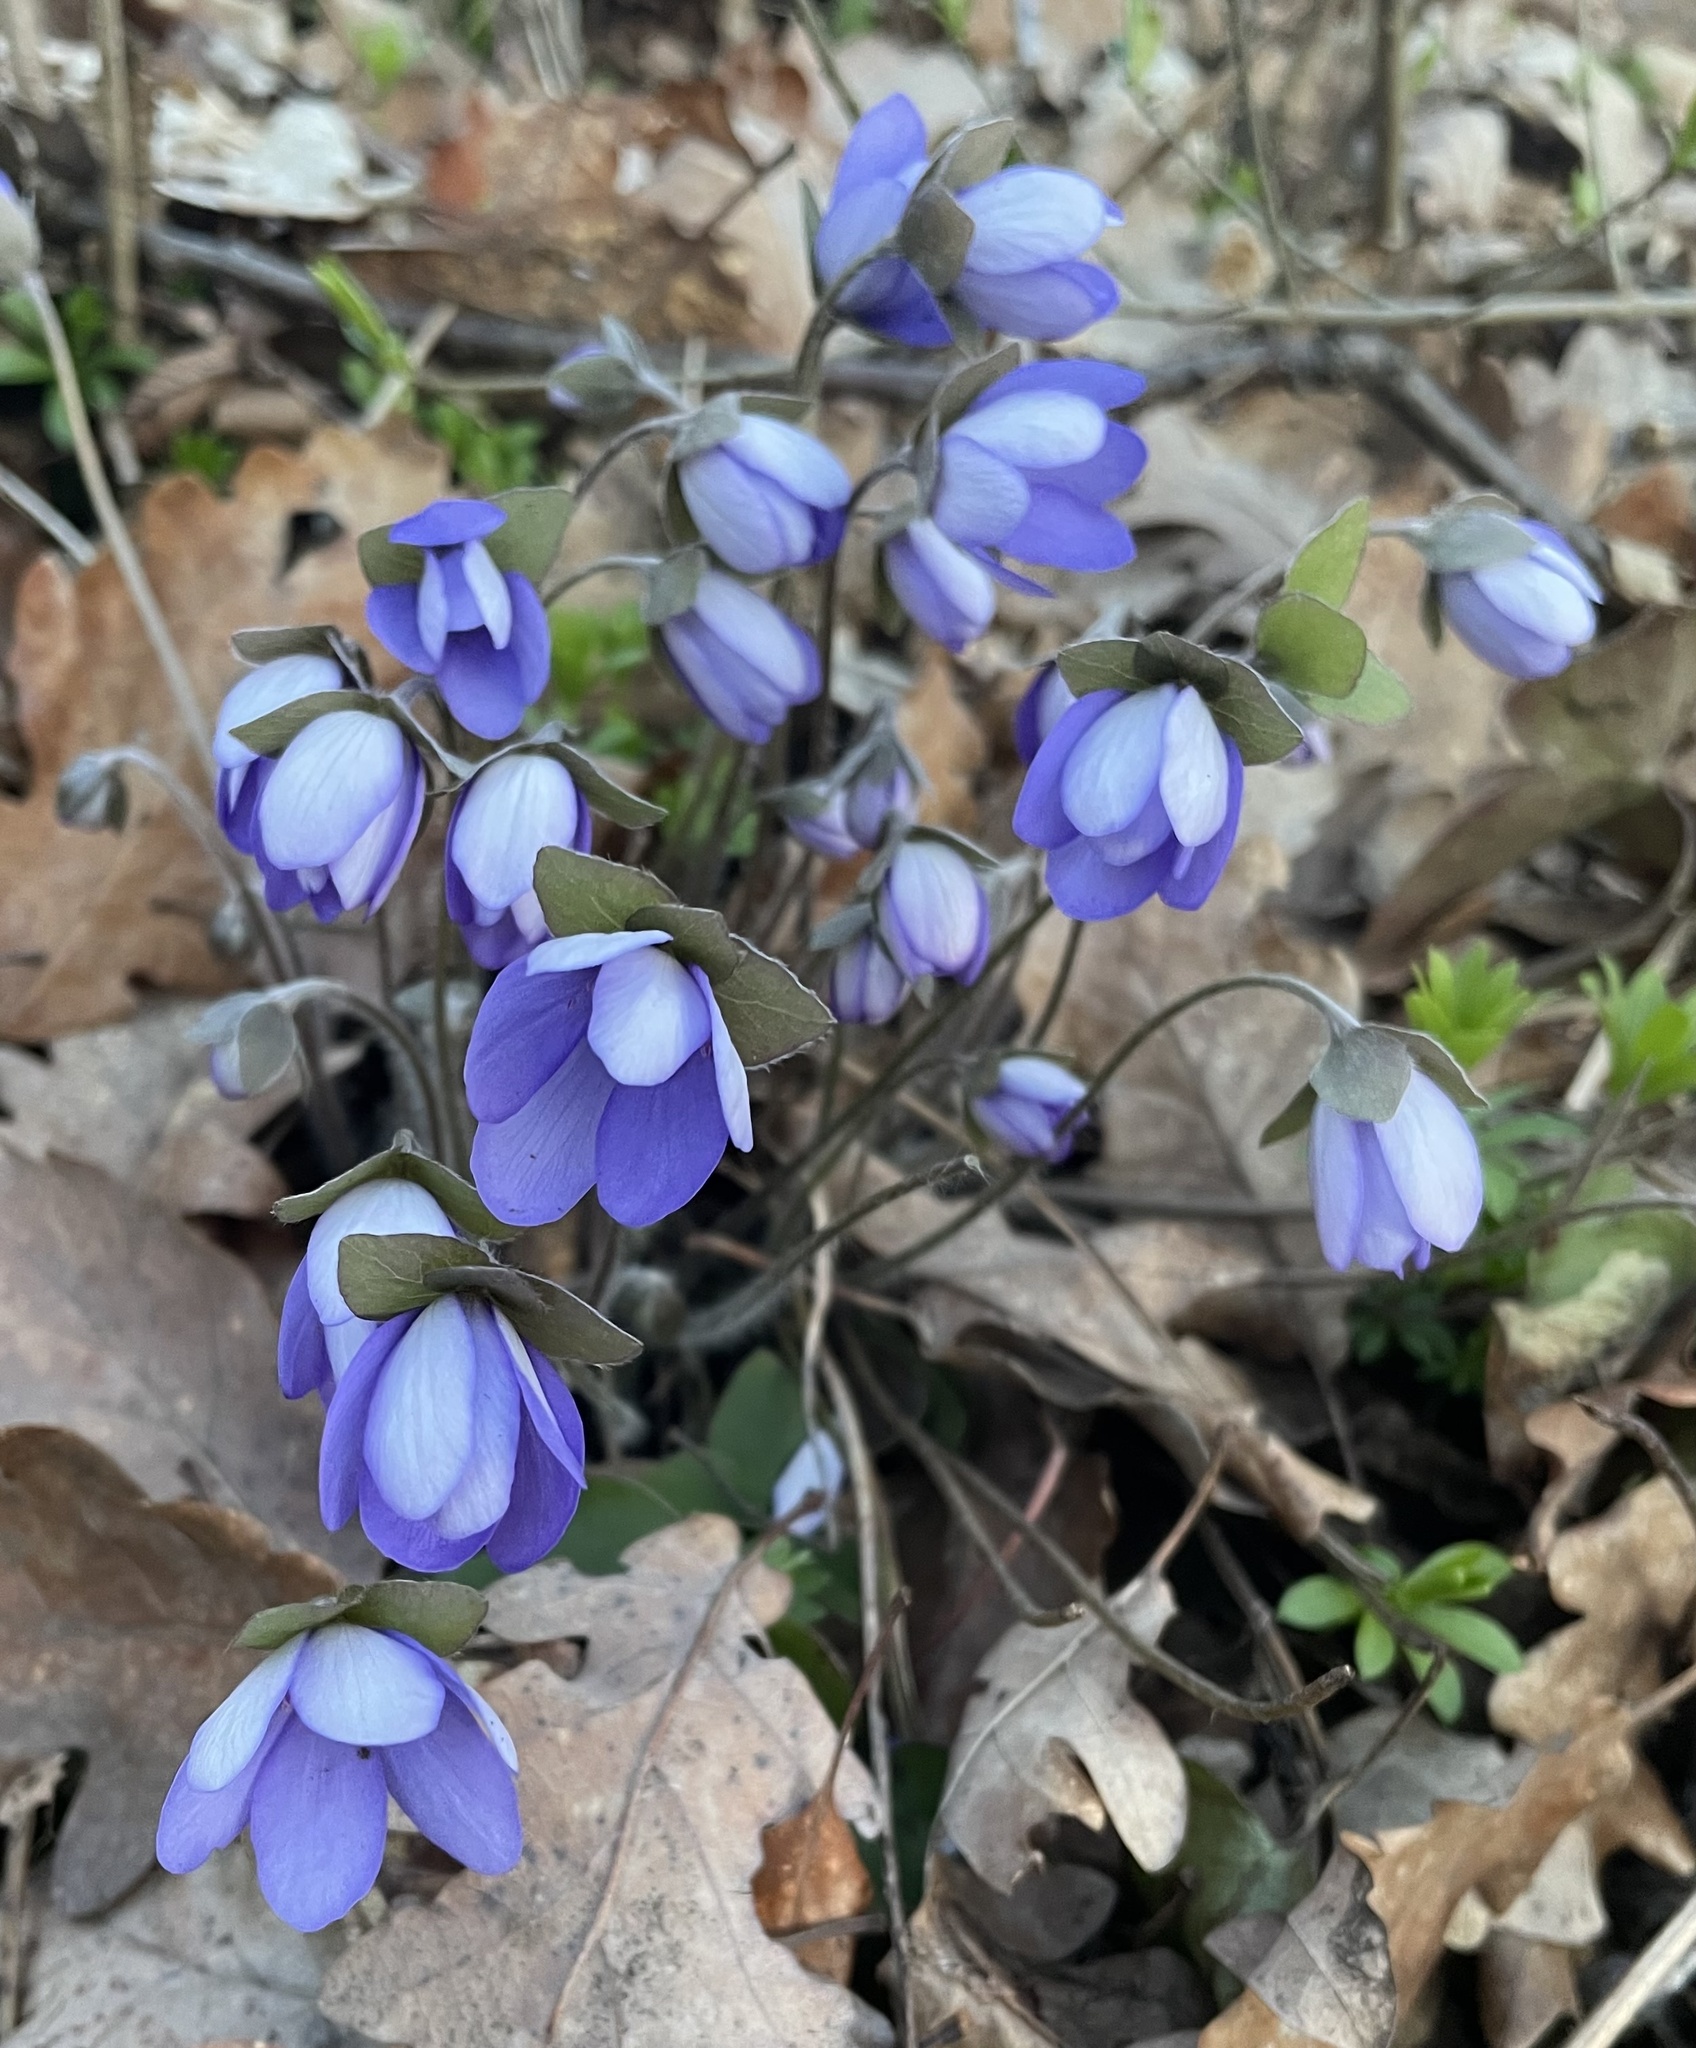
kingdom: Plantae
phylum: Tracheophyta
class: Magnoliopsida
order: Ranunculales
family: Ranunculaceae
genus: Hepatica
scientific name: Hepatica nobilis
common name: Liverleaf
